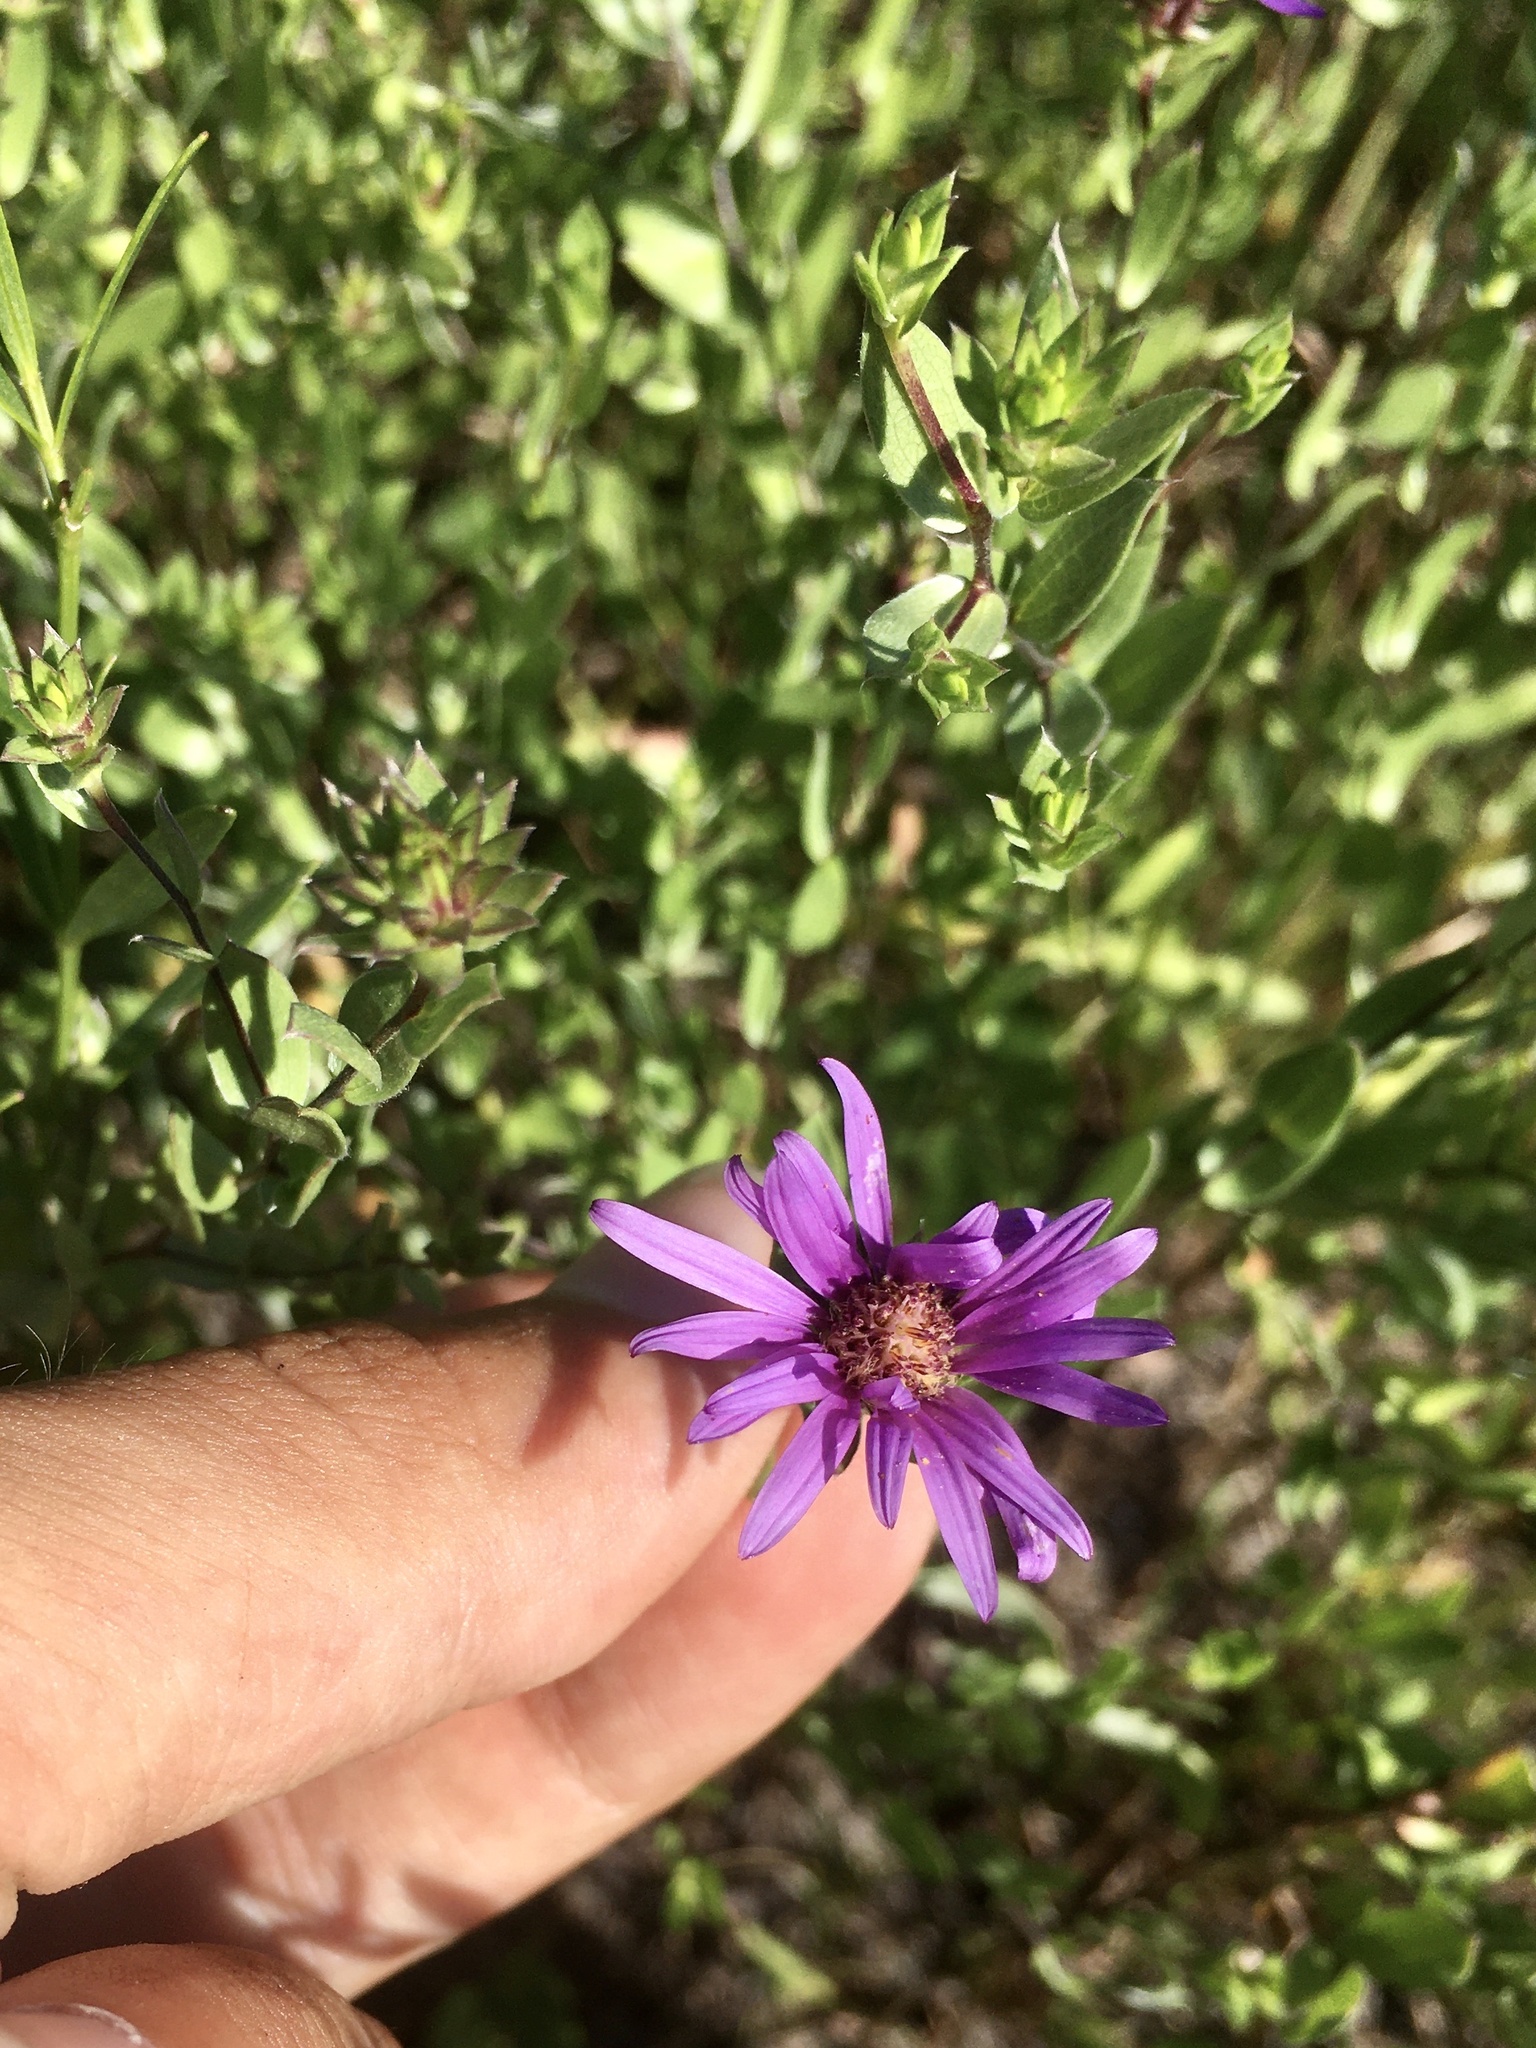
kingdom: Plantae
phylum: Tracheophyta
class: Magnoliopsida
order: Asterales
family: Asteraceae
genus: Symphyotrichum
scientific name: Symphyotrichum sericeum
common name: Silky aster
